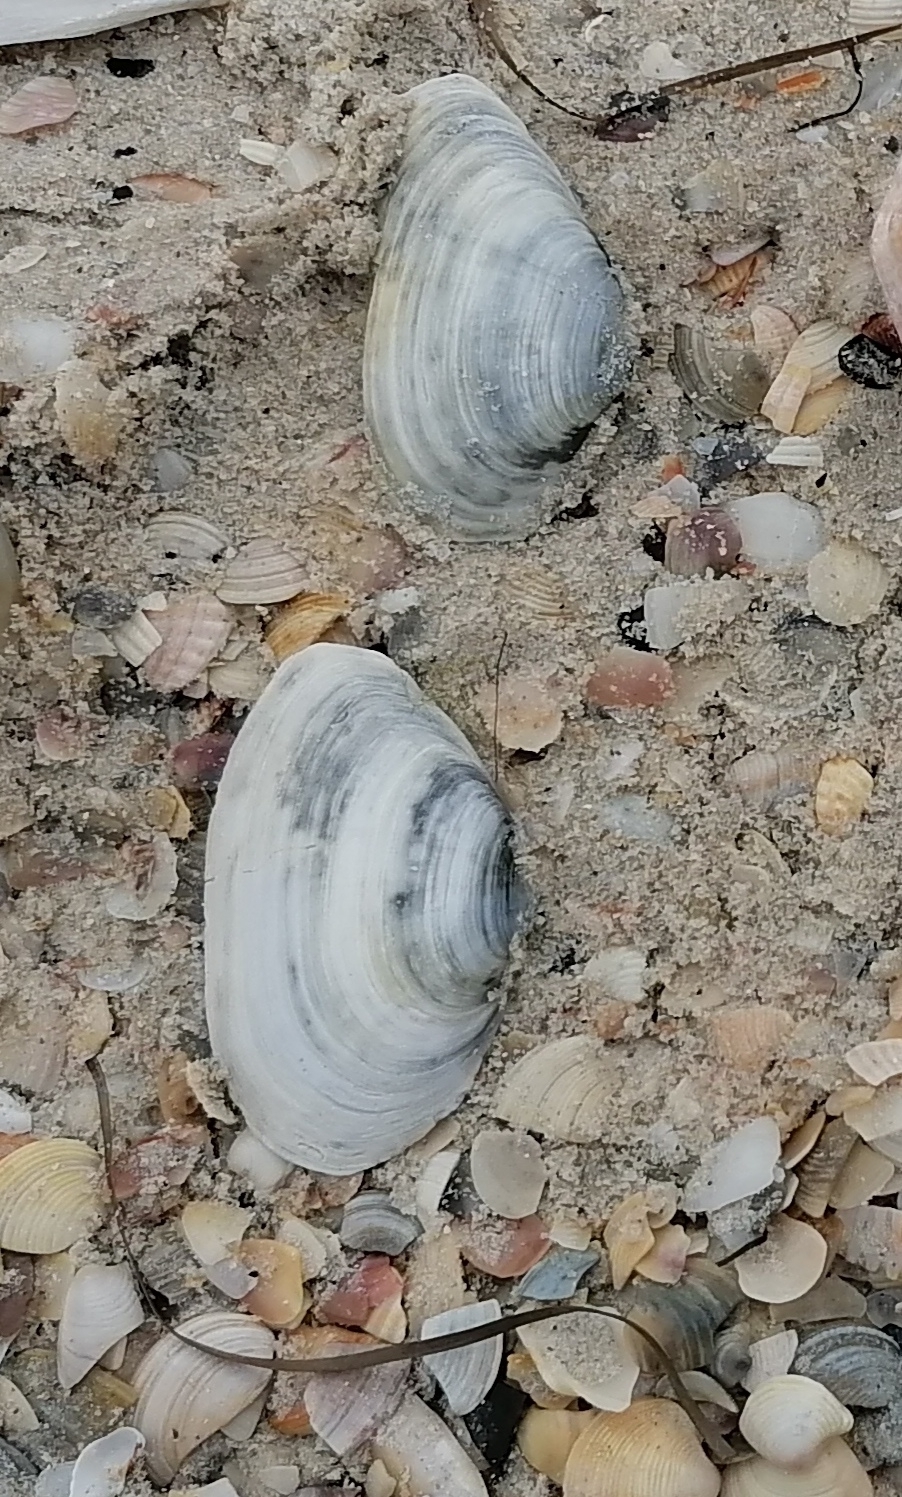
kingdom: Animalia
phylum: Mollusca
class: Bivalvia
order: Myida
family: Myidae
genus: Mya
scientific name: Mya arenaria
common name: Soft-shelled clam
